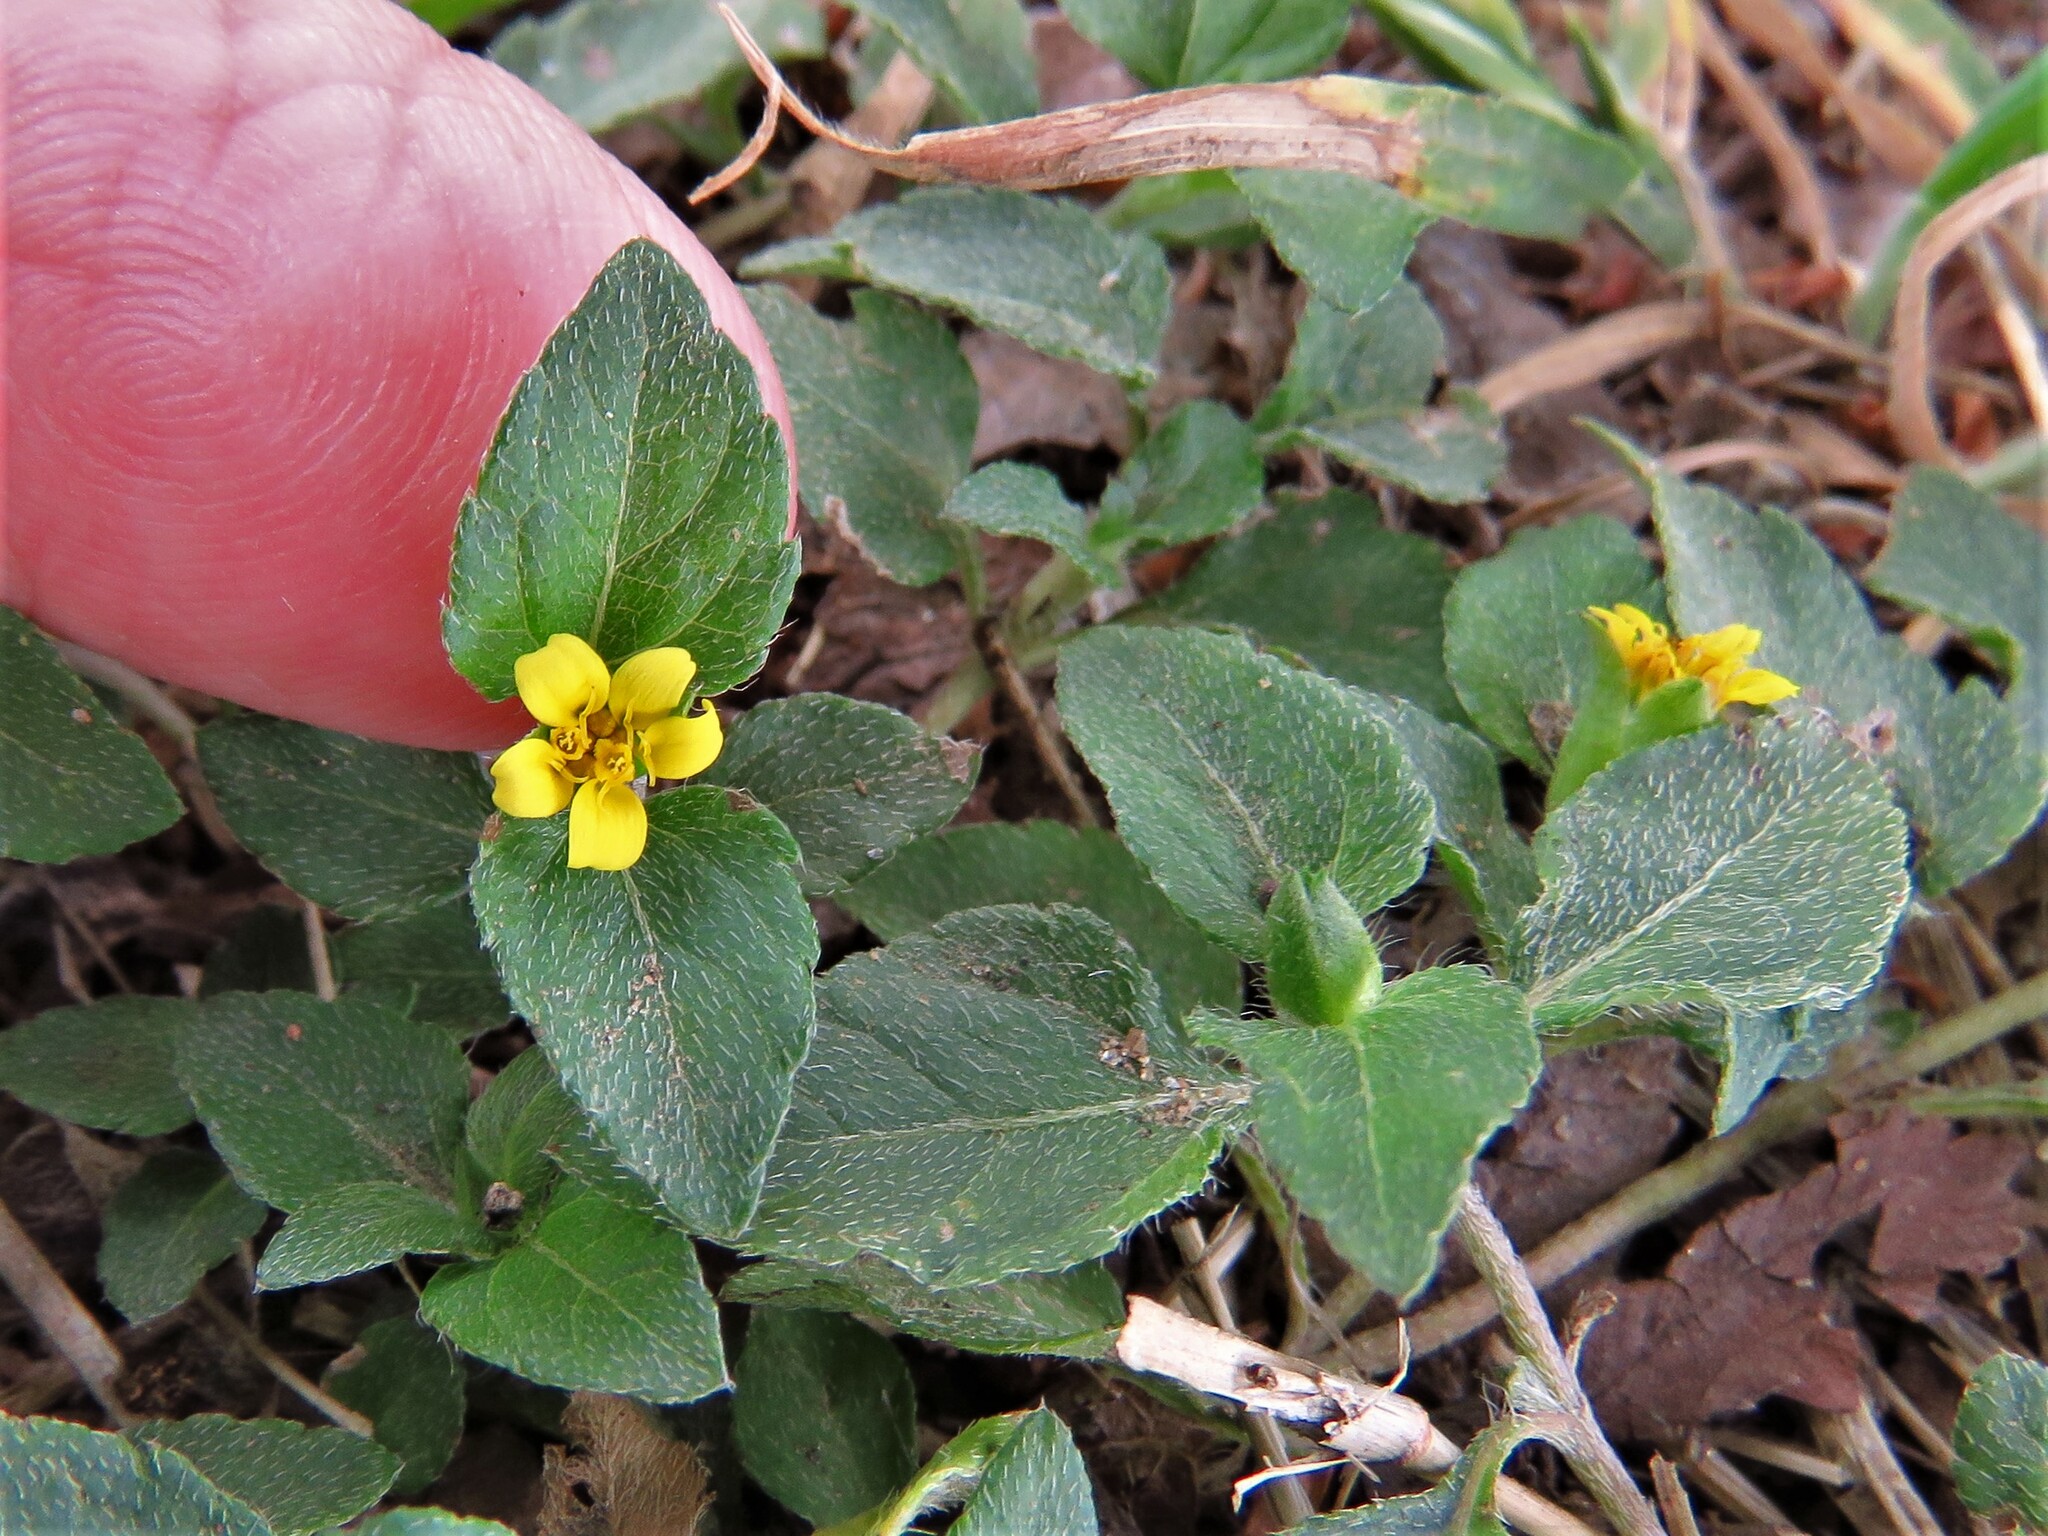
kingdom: Plantae
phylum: Tracheophyta
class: Magnoliopsida
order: Asterales
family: Asteraceae
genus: Calyptocarpus
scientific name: Calyptocarpus vialis
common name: Straggler daisy
